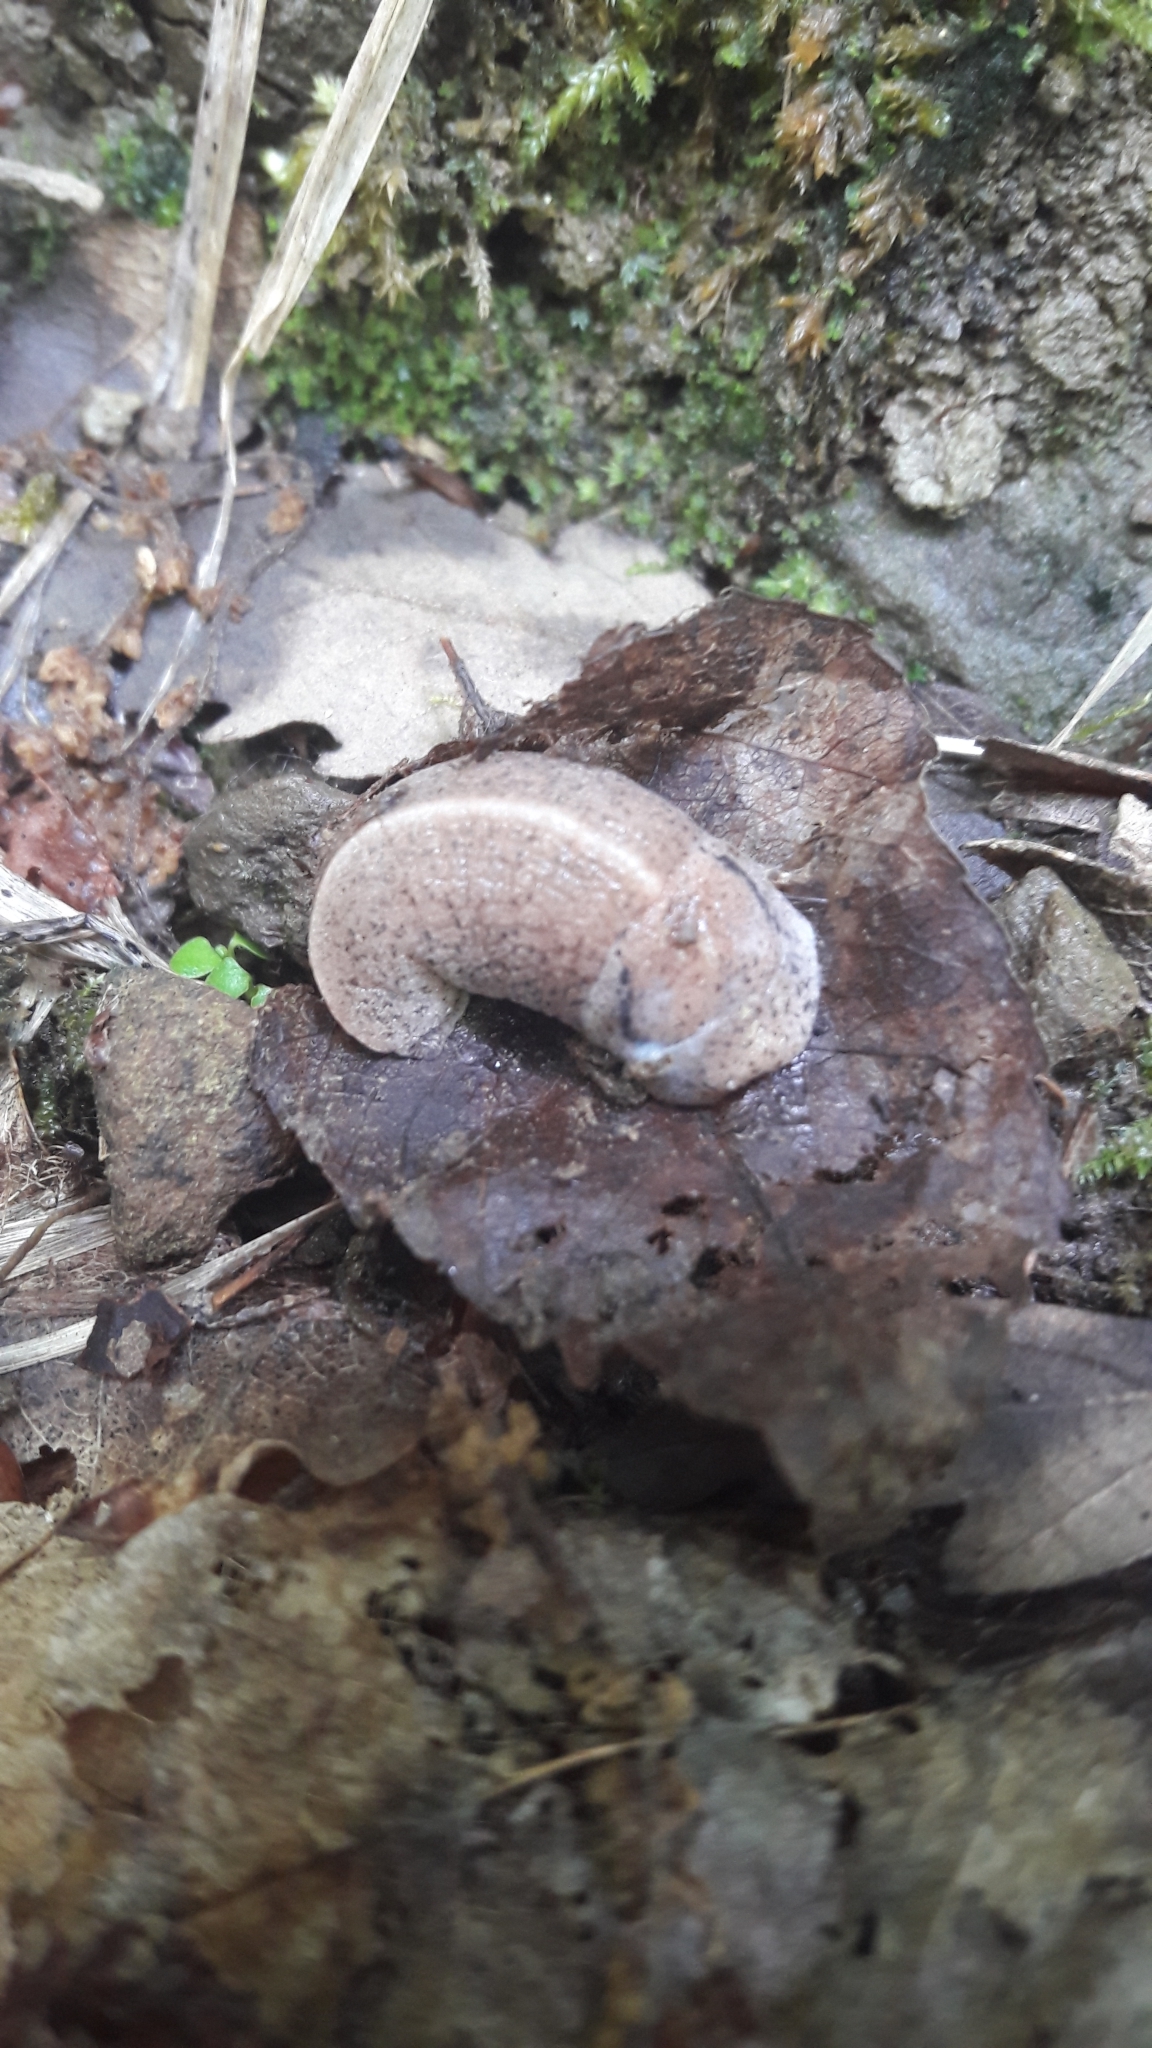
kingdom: Animalia
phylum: Mollusca
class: Gastropoda
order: Stylommatophora
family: Milacidae
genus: Tandonia
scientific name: Tandonia rustica
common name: Bulb-eating slug
